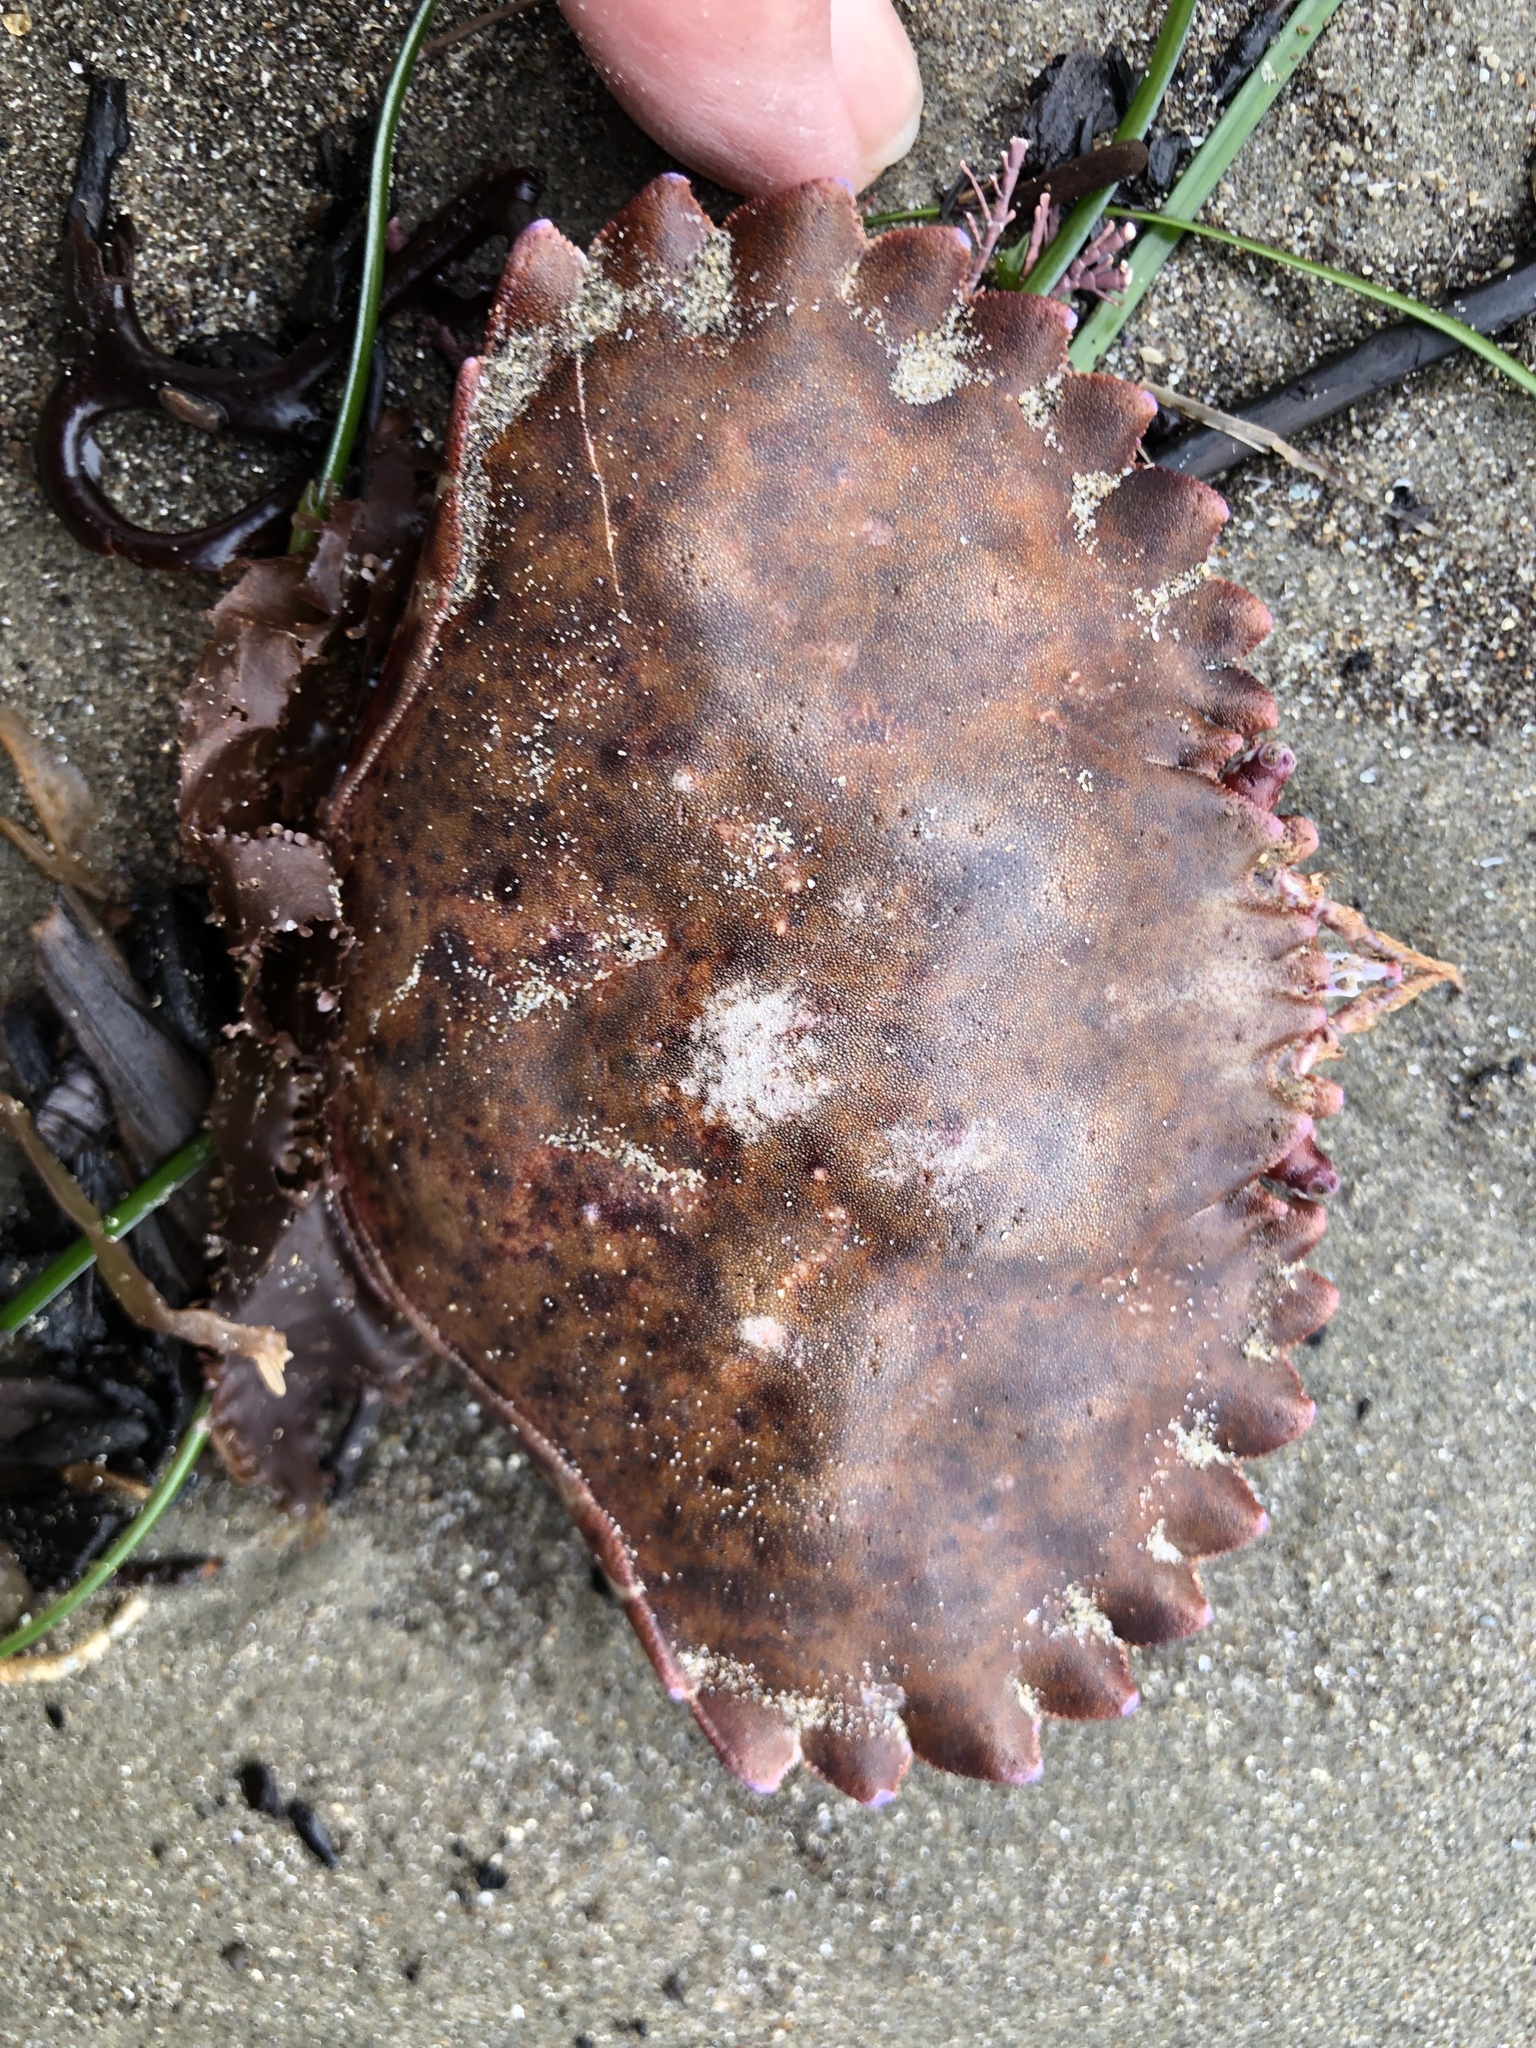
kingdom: Animalia
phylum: Arthropoda
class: Malacostraca
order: Decapoda
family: Cancridae
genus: Romaleon
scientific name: Romaleon antennarium
